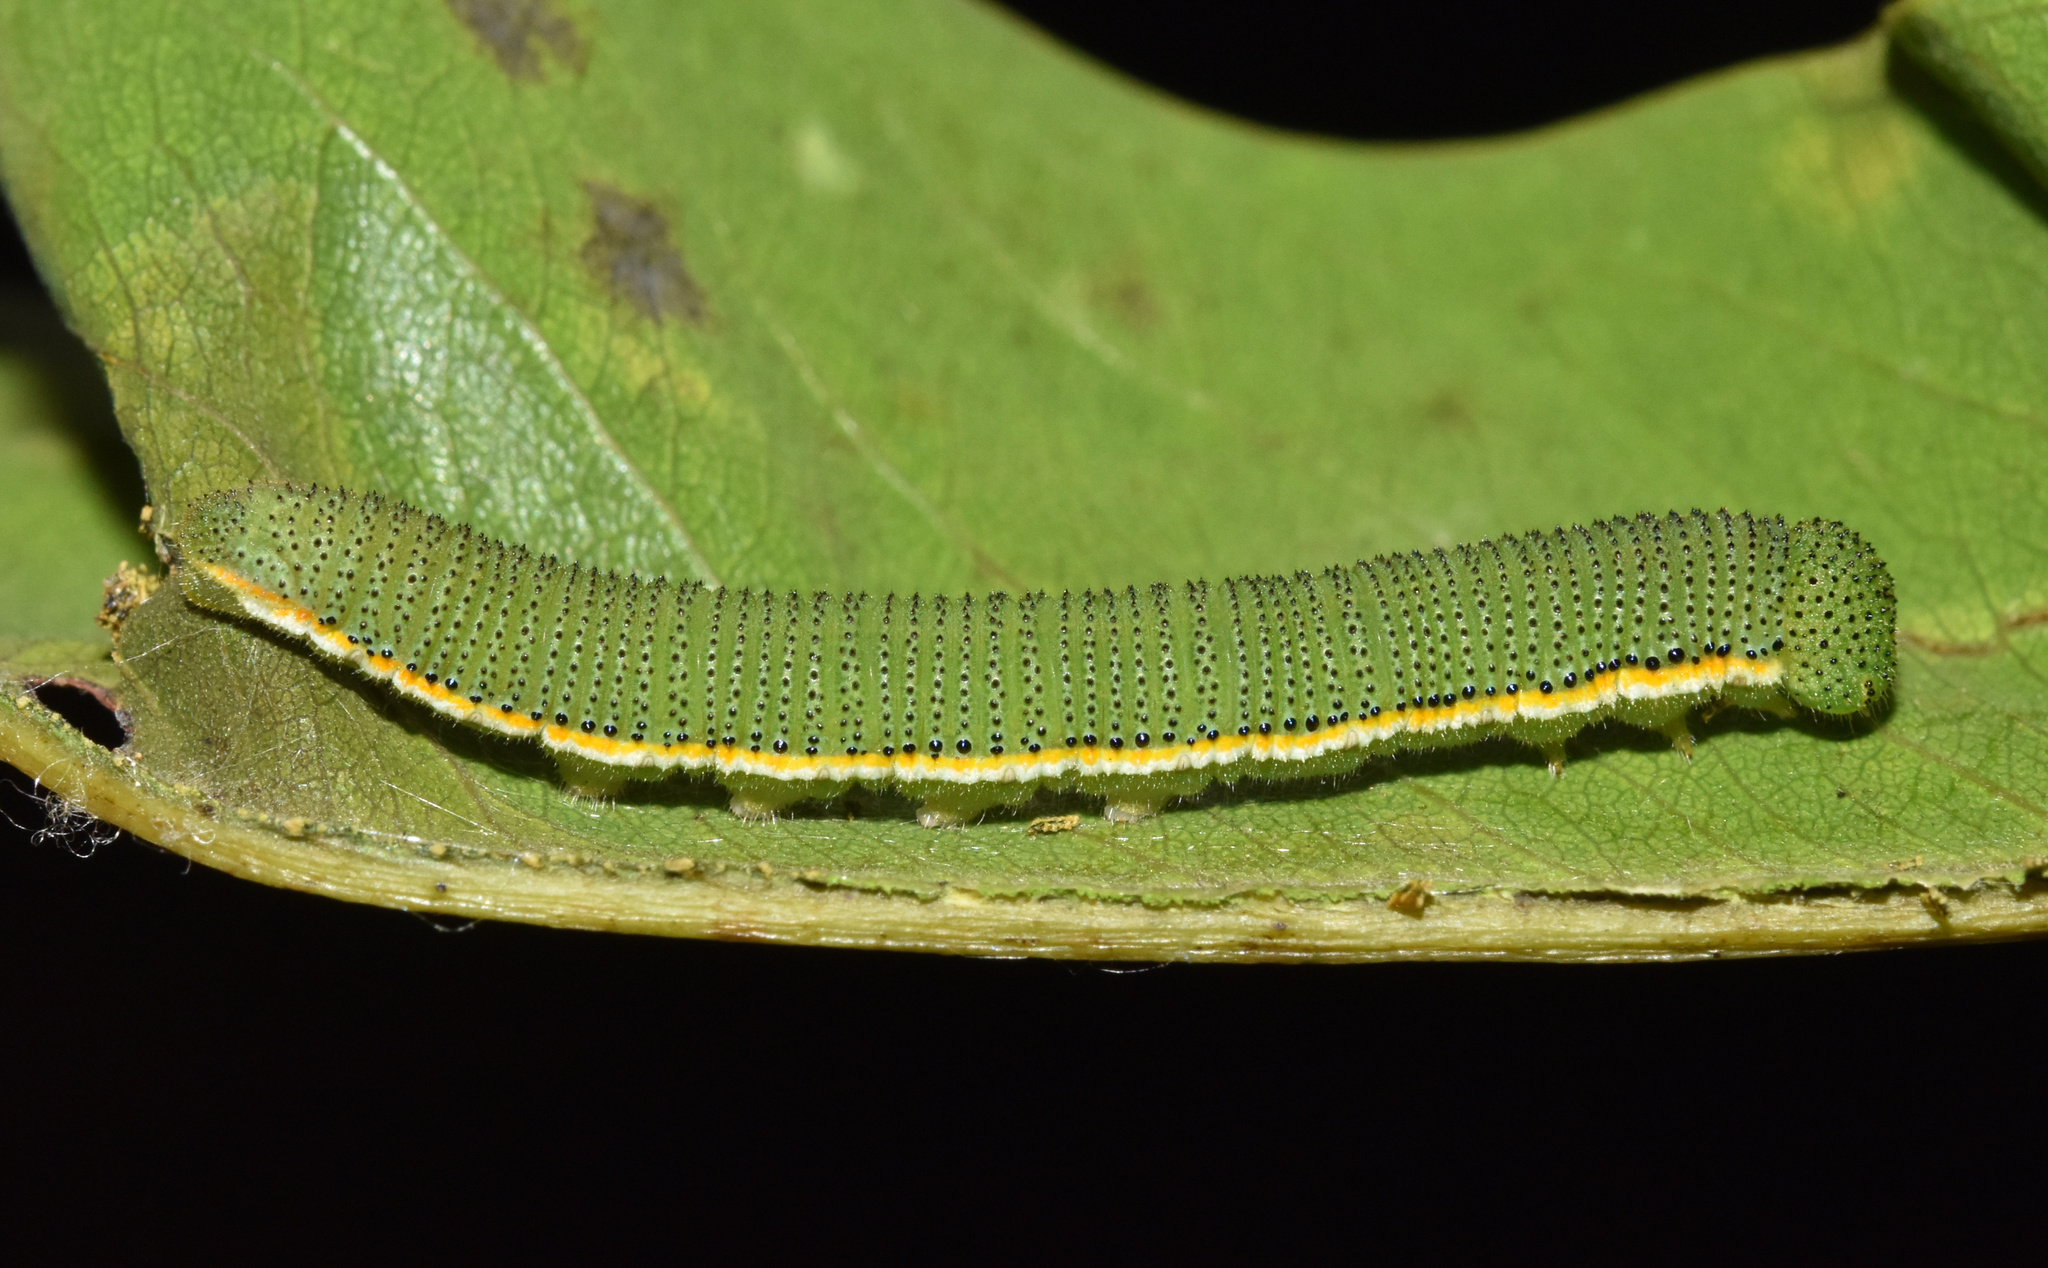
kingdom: Animalia
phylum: Arthropoda
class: Insecta
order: Lepidoptera
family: Pieridae
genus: Catopsilia
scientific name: Catopsilia florella
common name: African migrant
